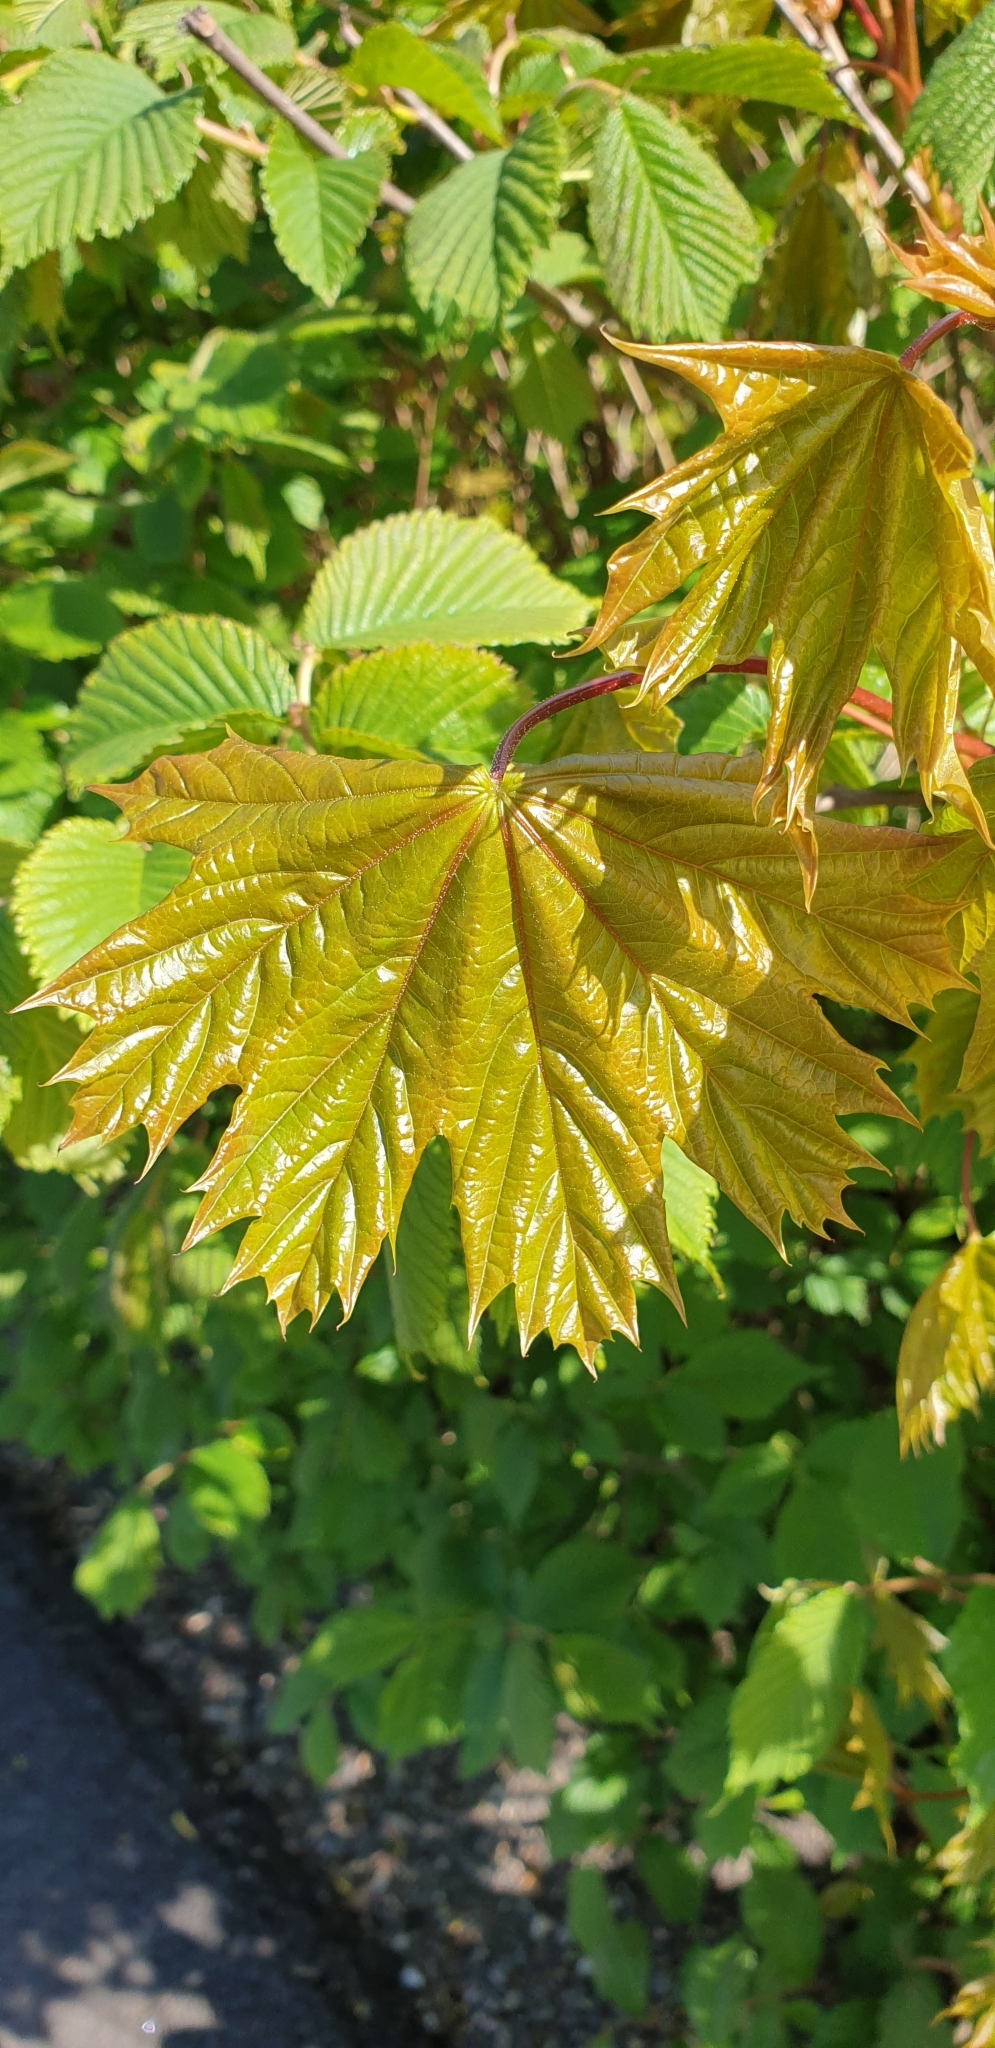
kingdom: Plantae
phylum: Tracheophyta
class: Magnoliopsida
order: Sapindales
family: Sapindaceae
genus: Acer
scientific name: Acer platanoides
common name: Norway maple
